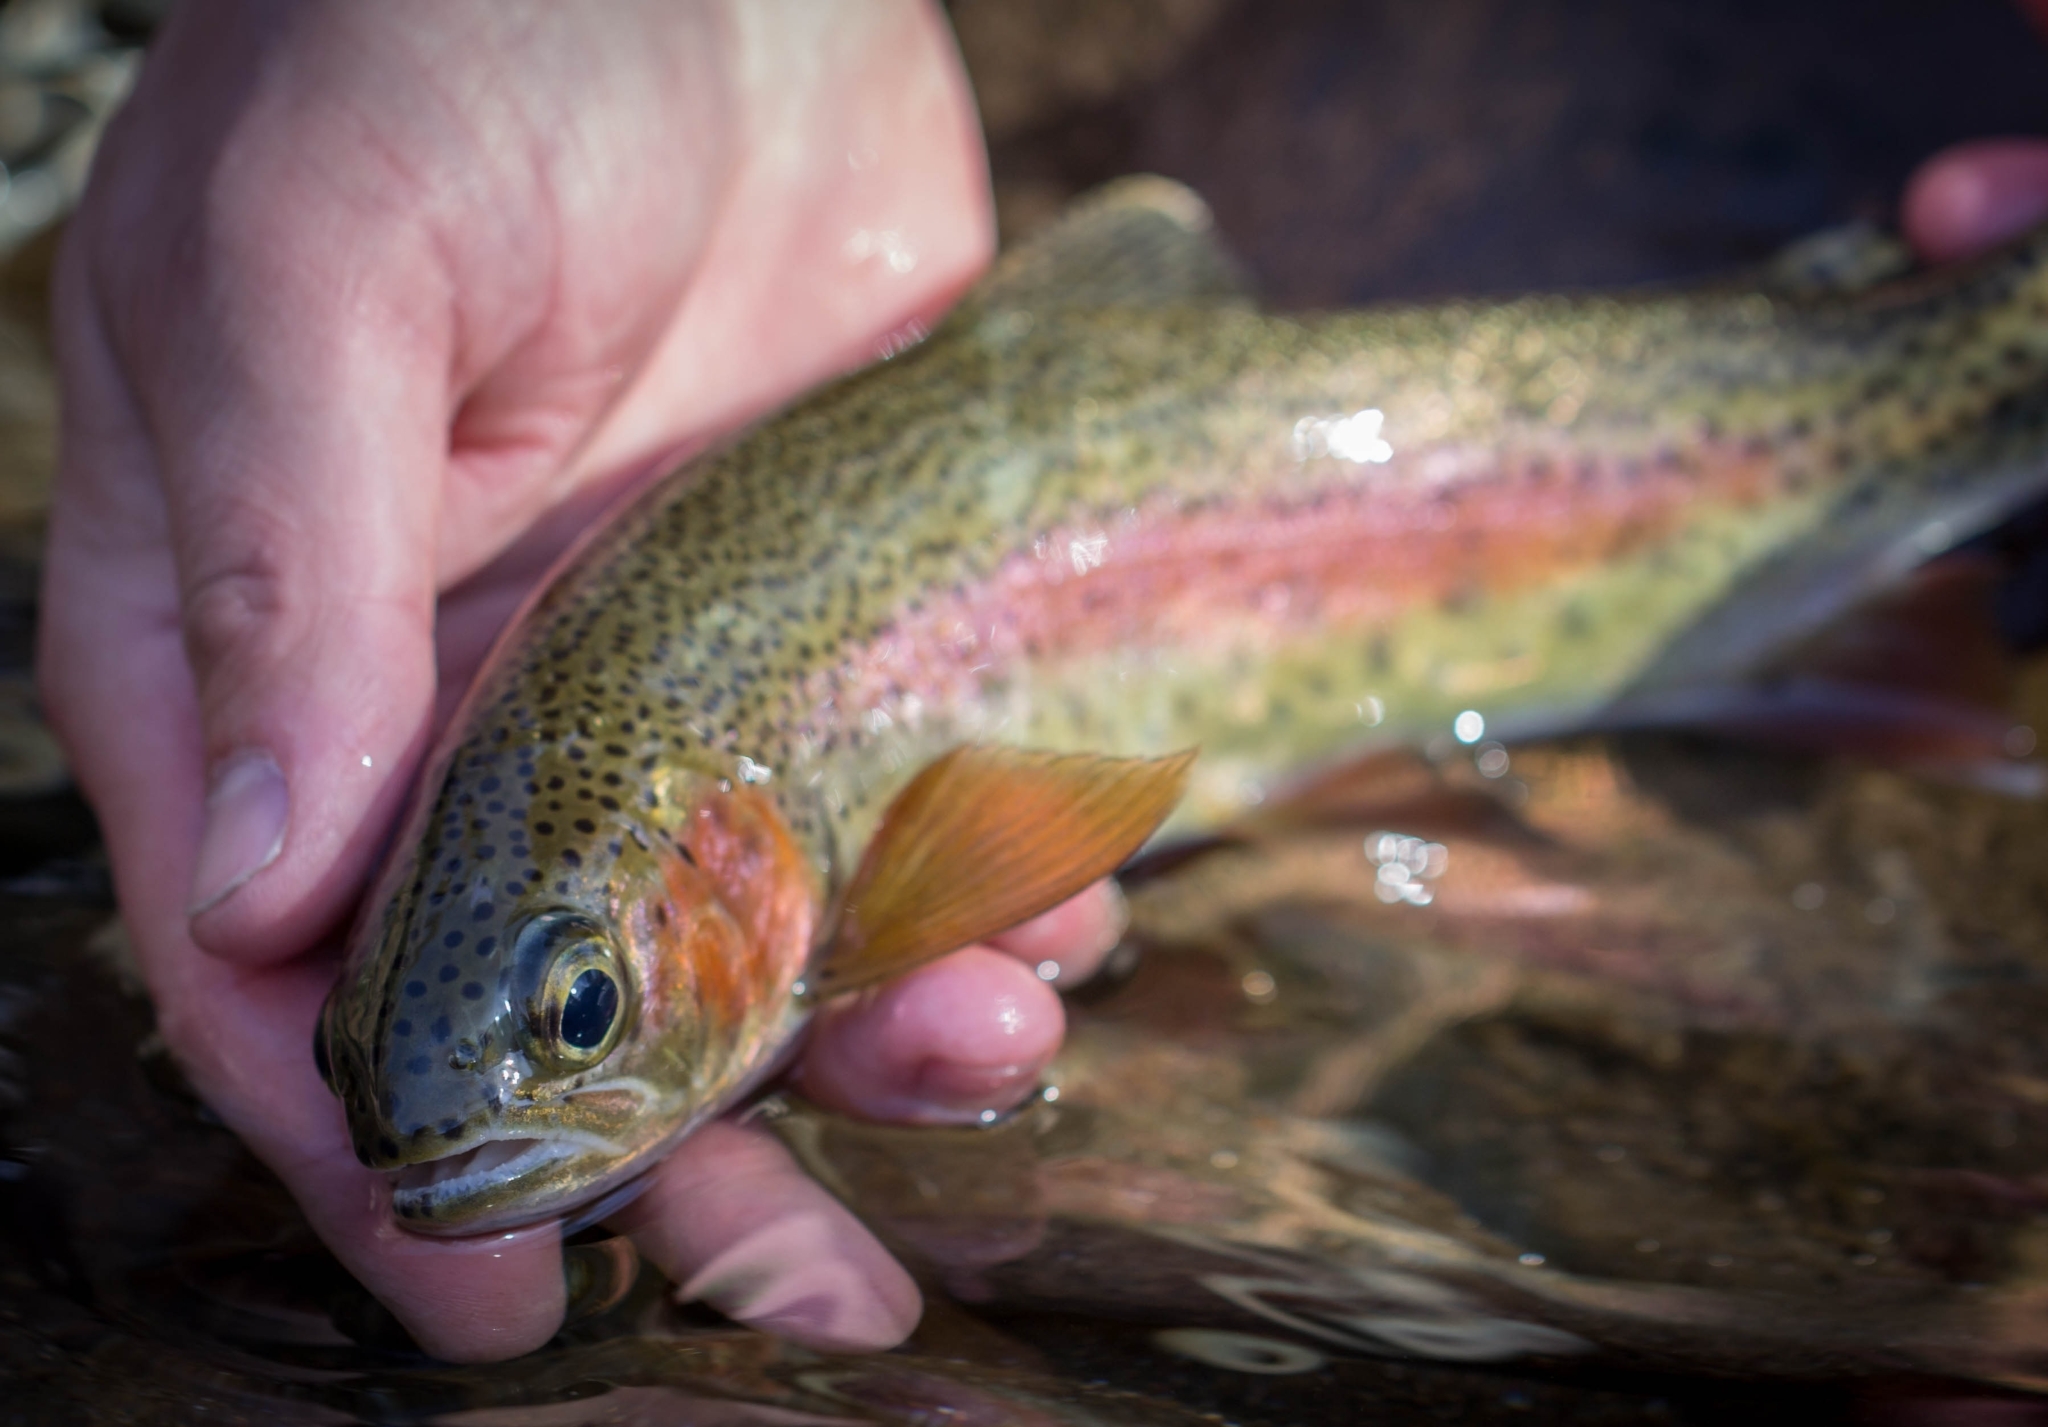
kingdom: Animalia
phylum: Chordata
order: Salmoniformes
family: Salmonidae
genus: Oncorhynchus
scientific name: Oncorhynchus mykiss
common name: Rainbow trout
